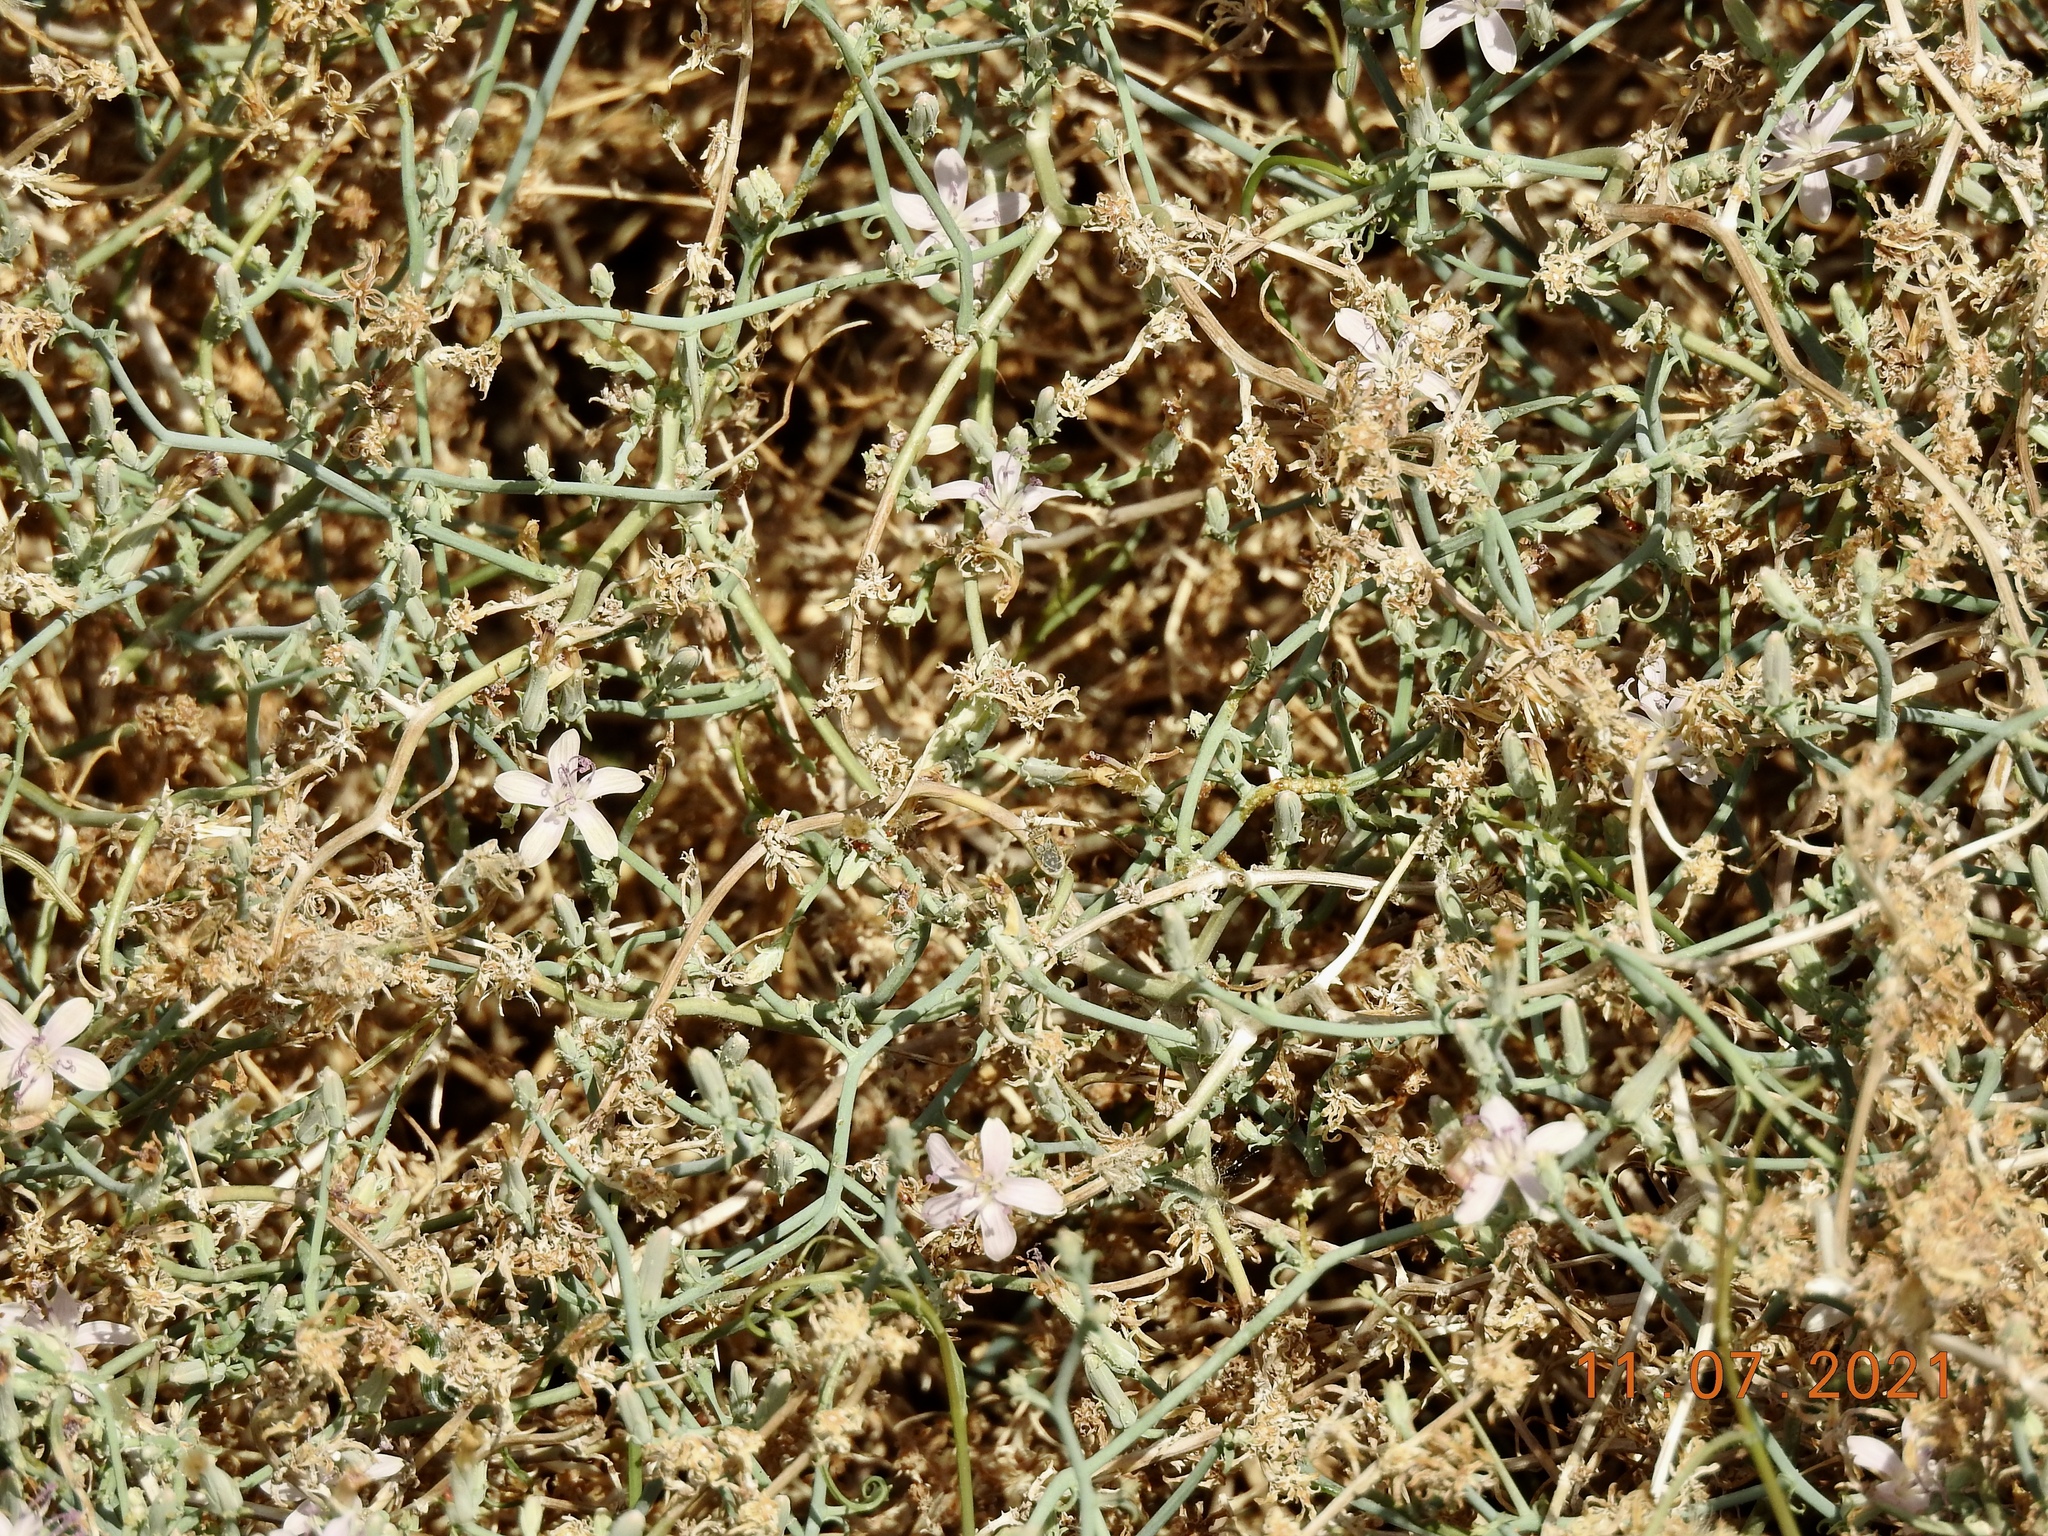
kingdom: Plantae
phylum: Tracheophyta
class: Magnoliopsida
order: Asterales
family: Asteraceae
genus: Stephanomeria
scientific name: Stephanomeria pauciflora
